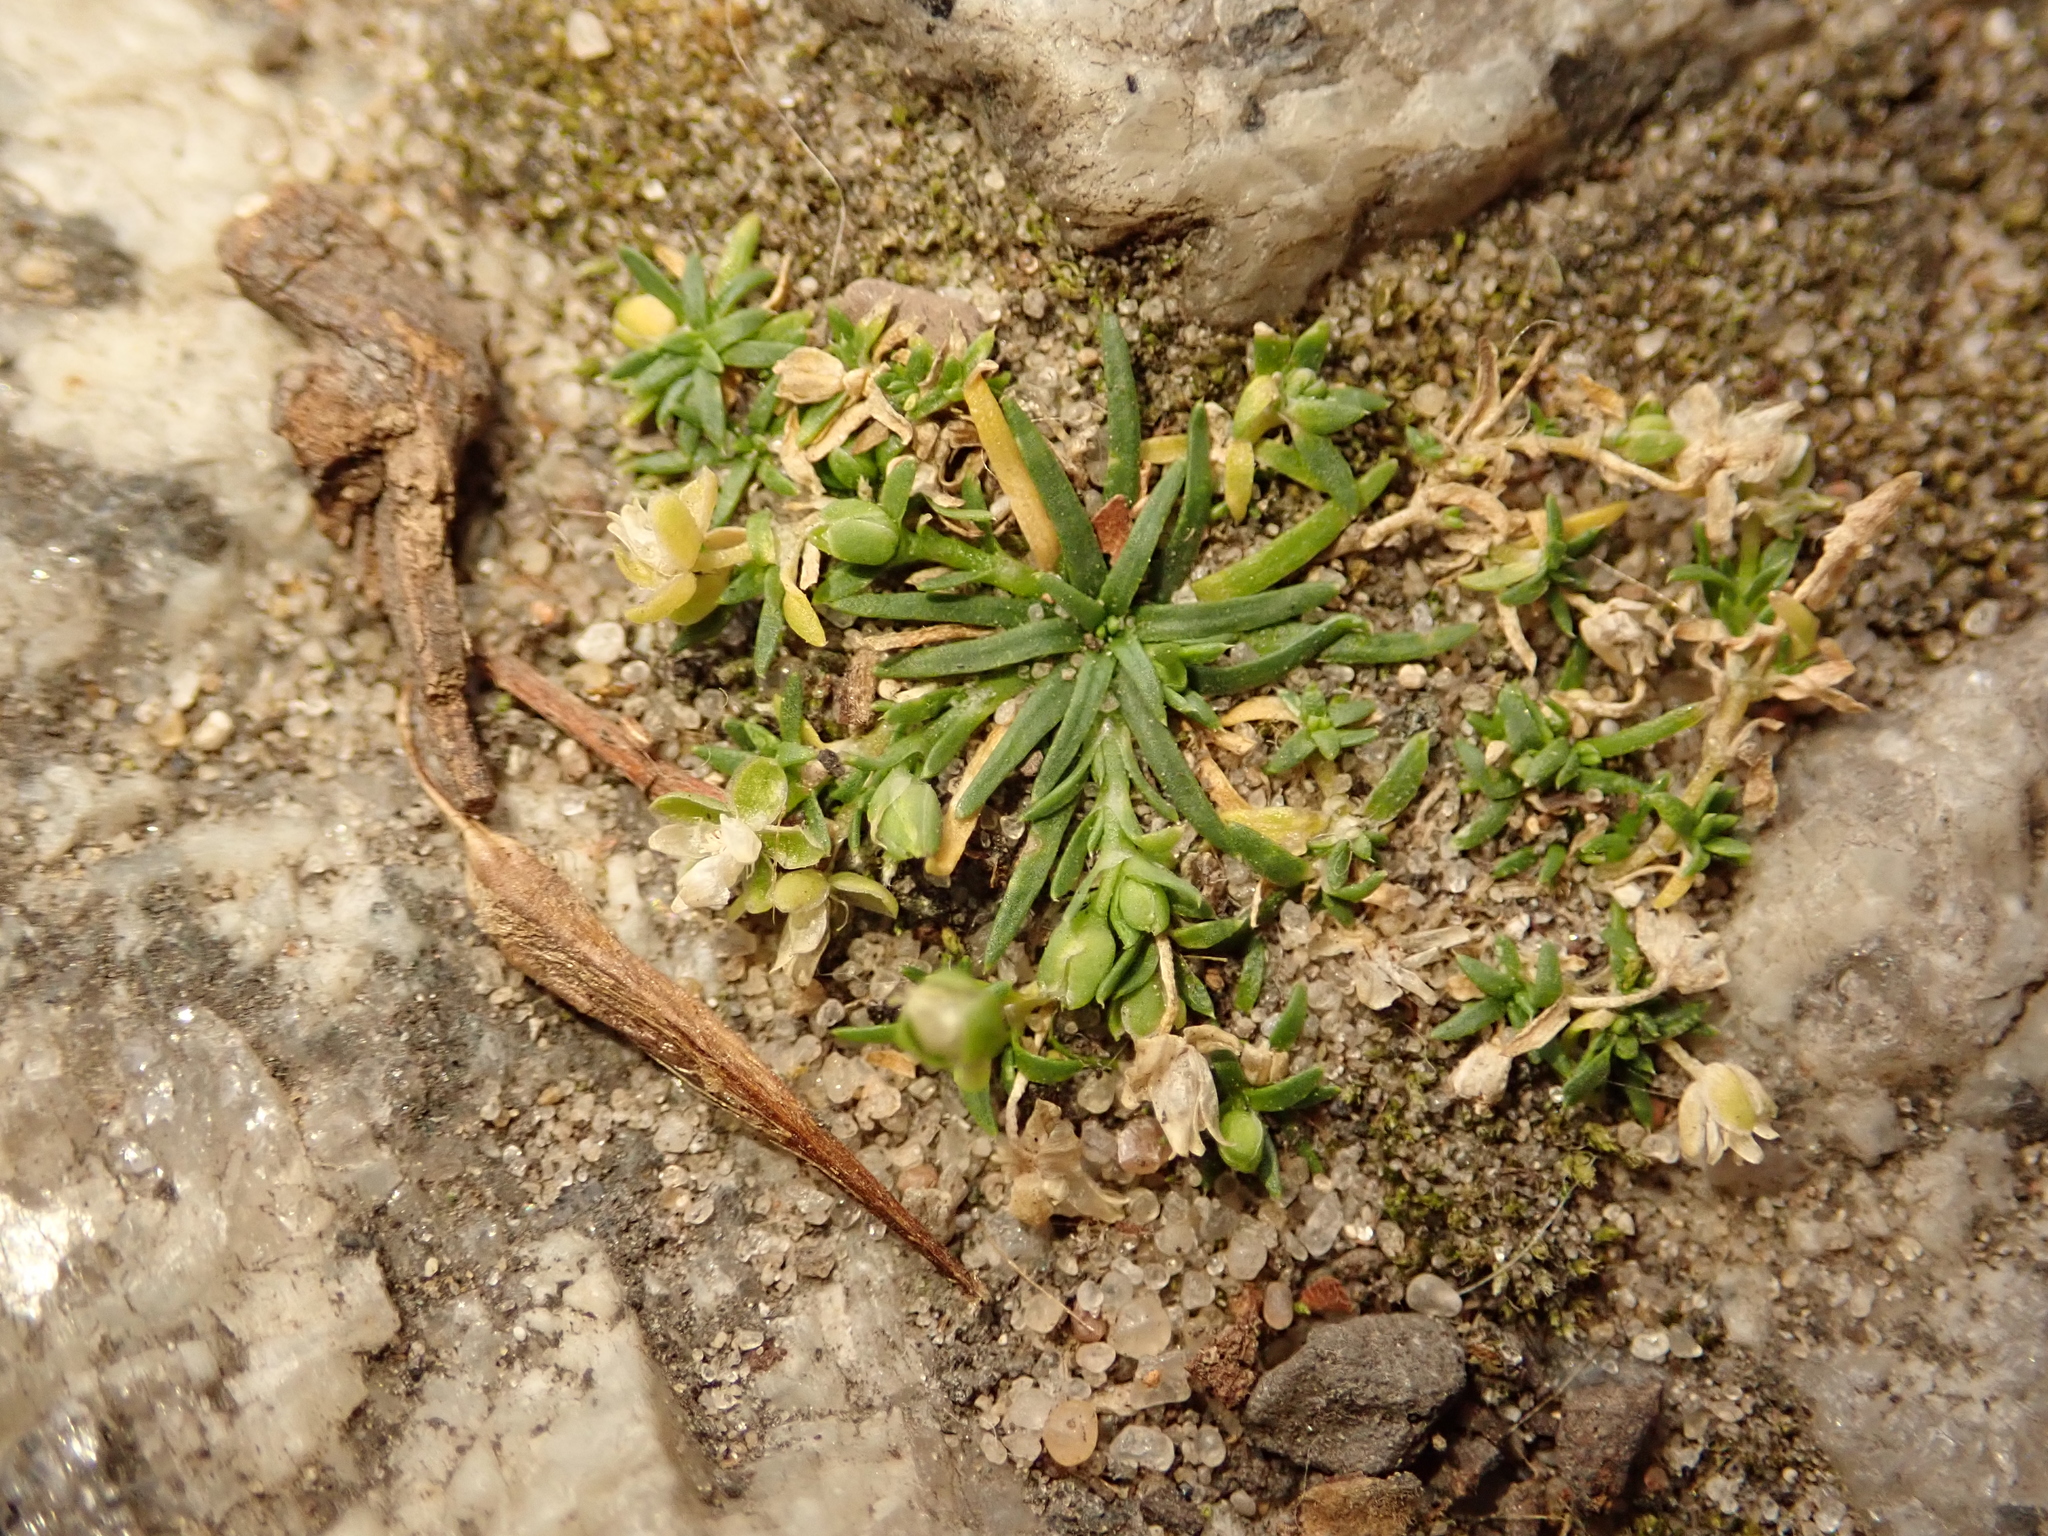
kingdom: Plantae
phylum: Tracheophyta
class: Magnoliopsida
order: Caryophyllales
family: Caryophyllaceae
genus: Sagina
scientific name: Sagina procumbens
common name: Procumbent pearlwort
